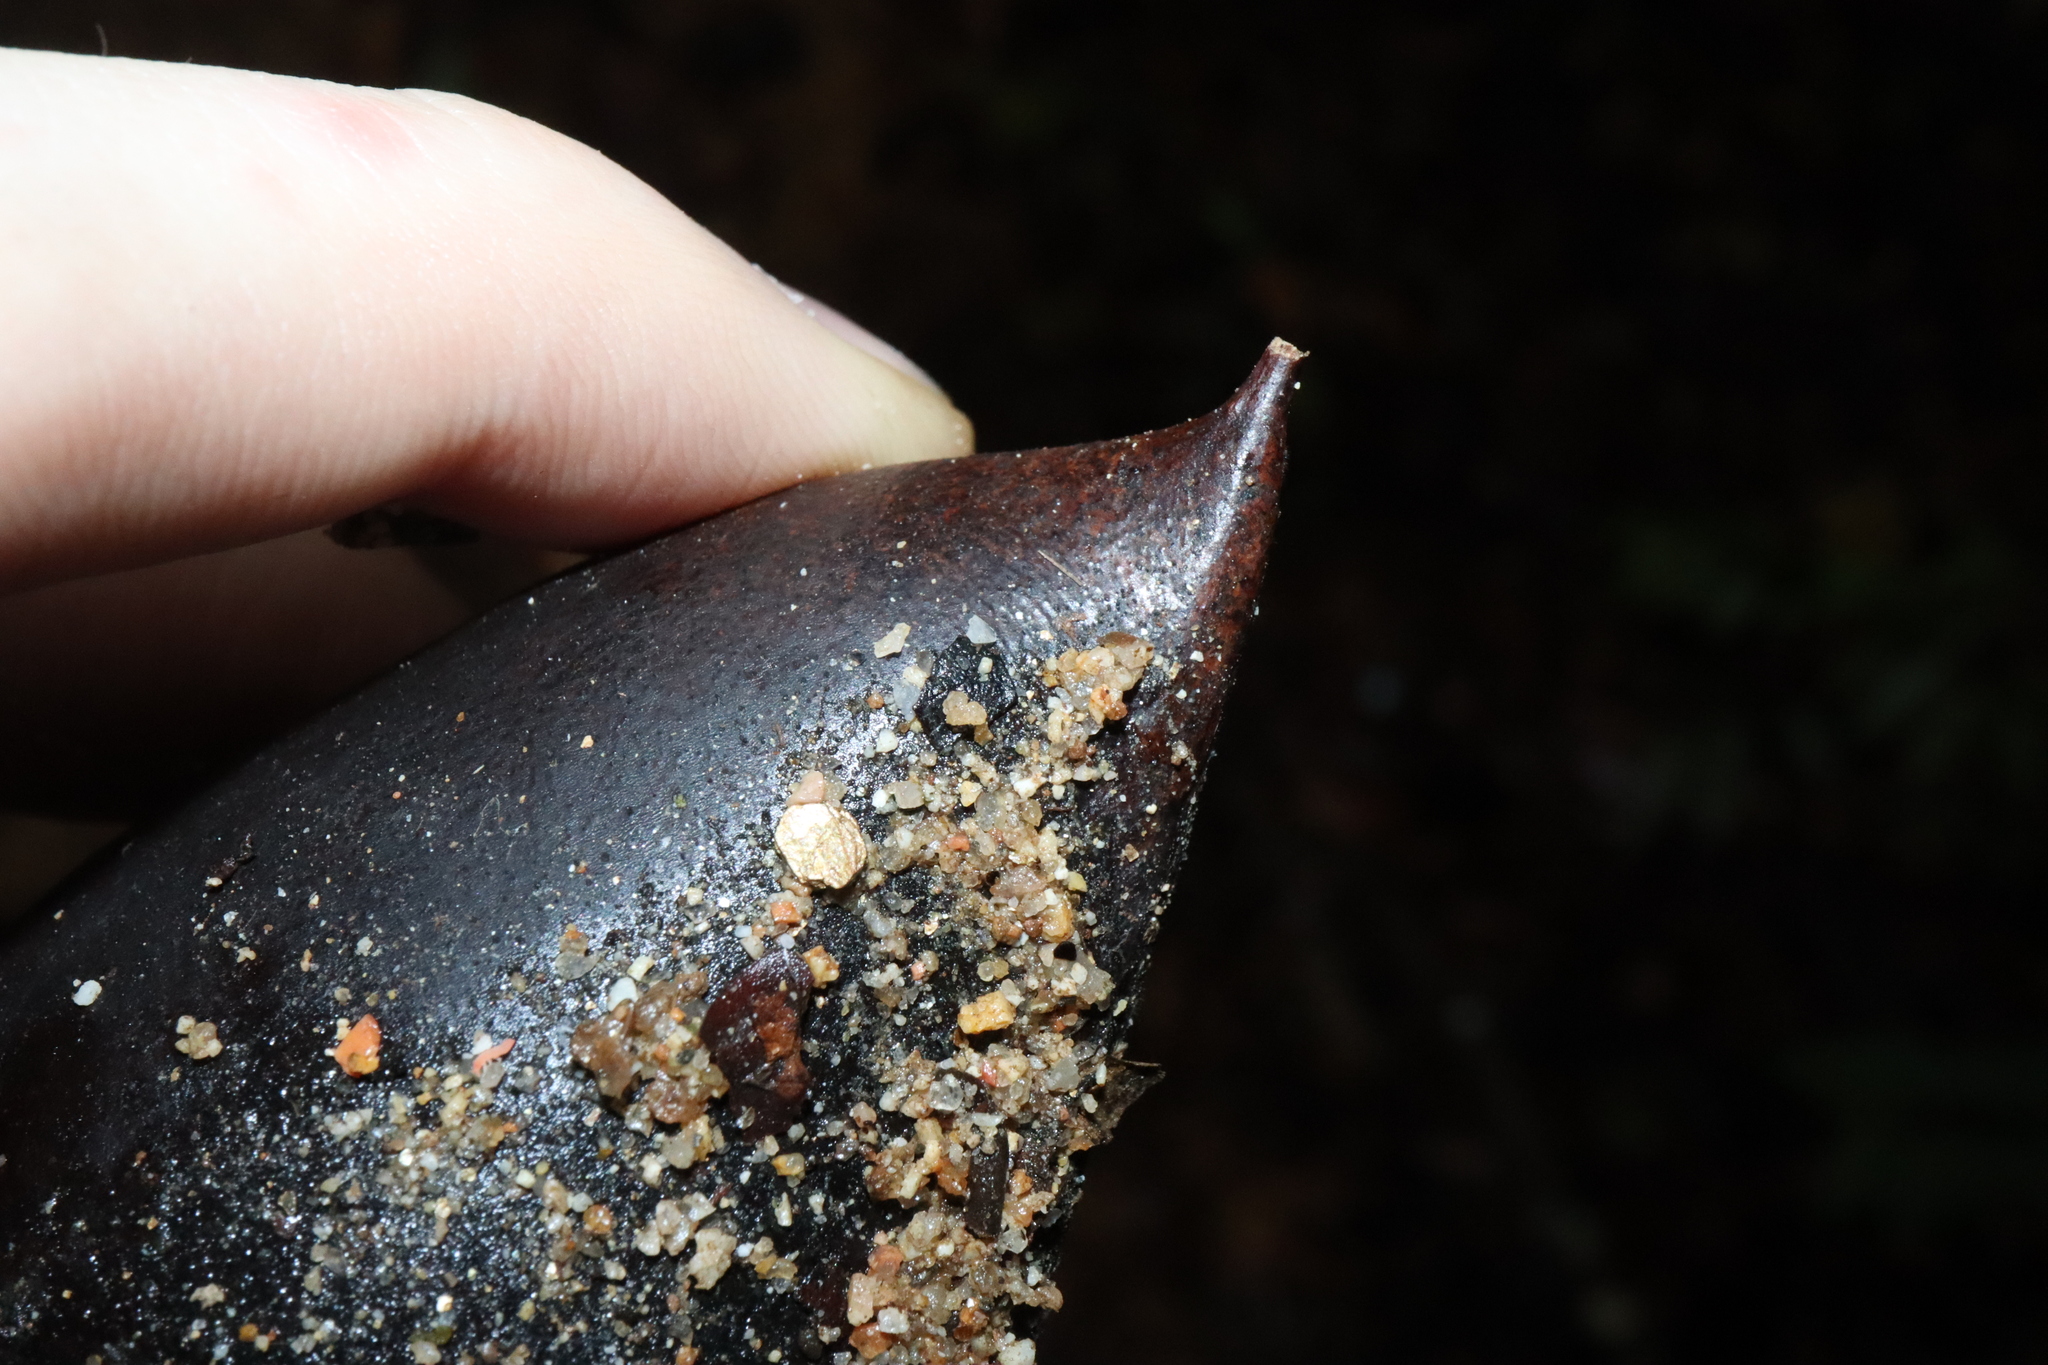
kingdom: Plantae
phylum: Tracheophyta
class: Magnoliopsida
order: Fabales
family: Fabaceae
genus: Castanospermum
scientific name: Castanospermum australe
